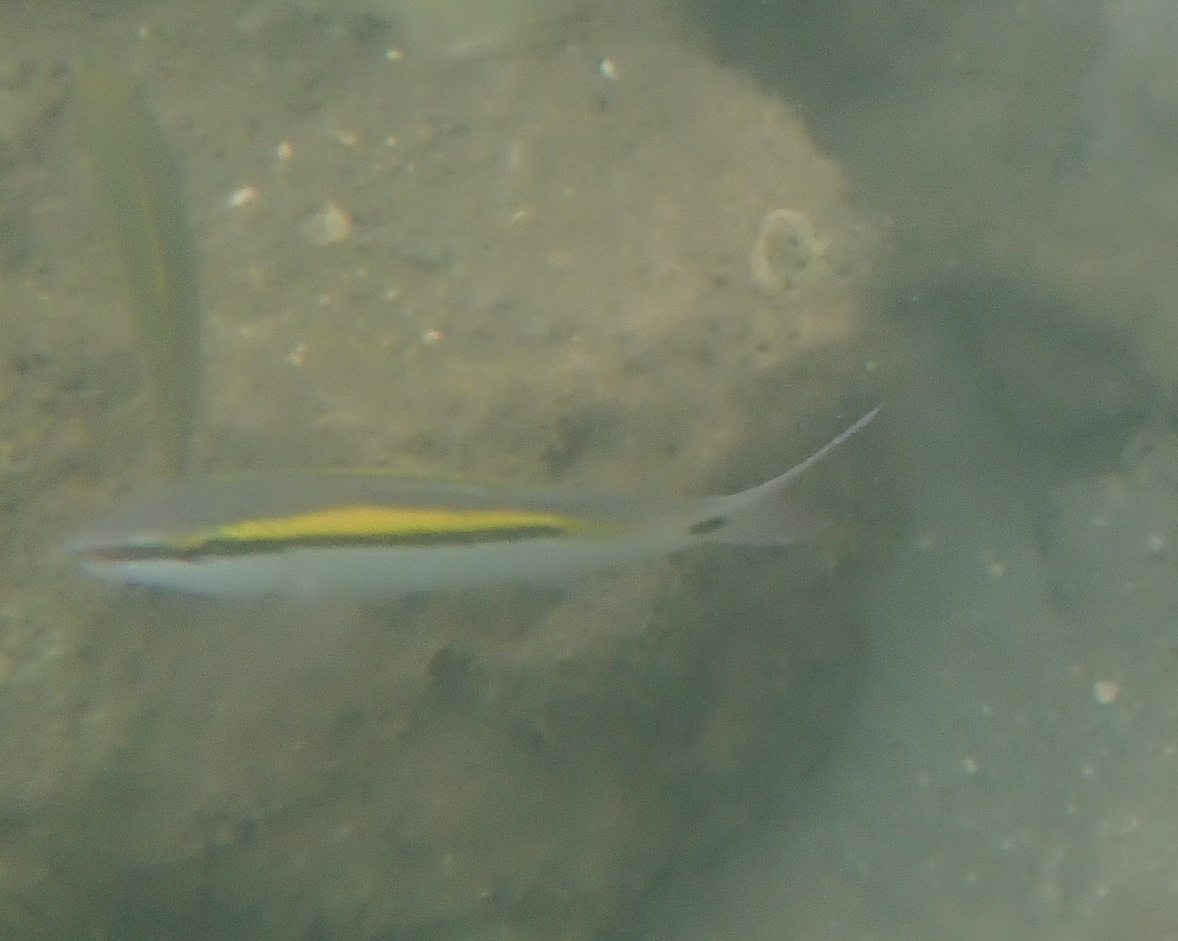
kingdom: Animalia
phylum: Chordata
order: Perciformes
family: Mullidae
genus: Parupeneus
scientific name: Parupeneus barberinus
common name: Dash-and-dot goatfish
